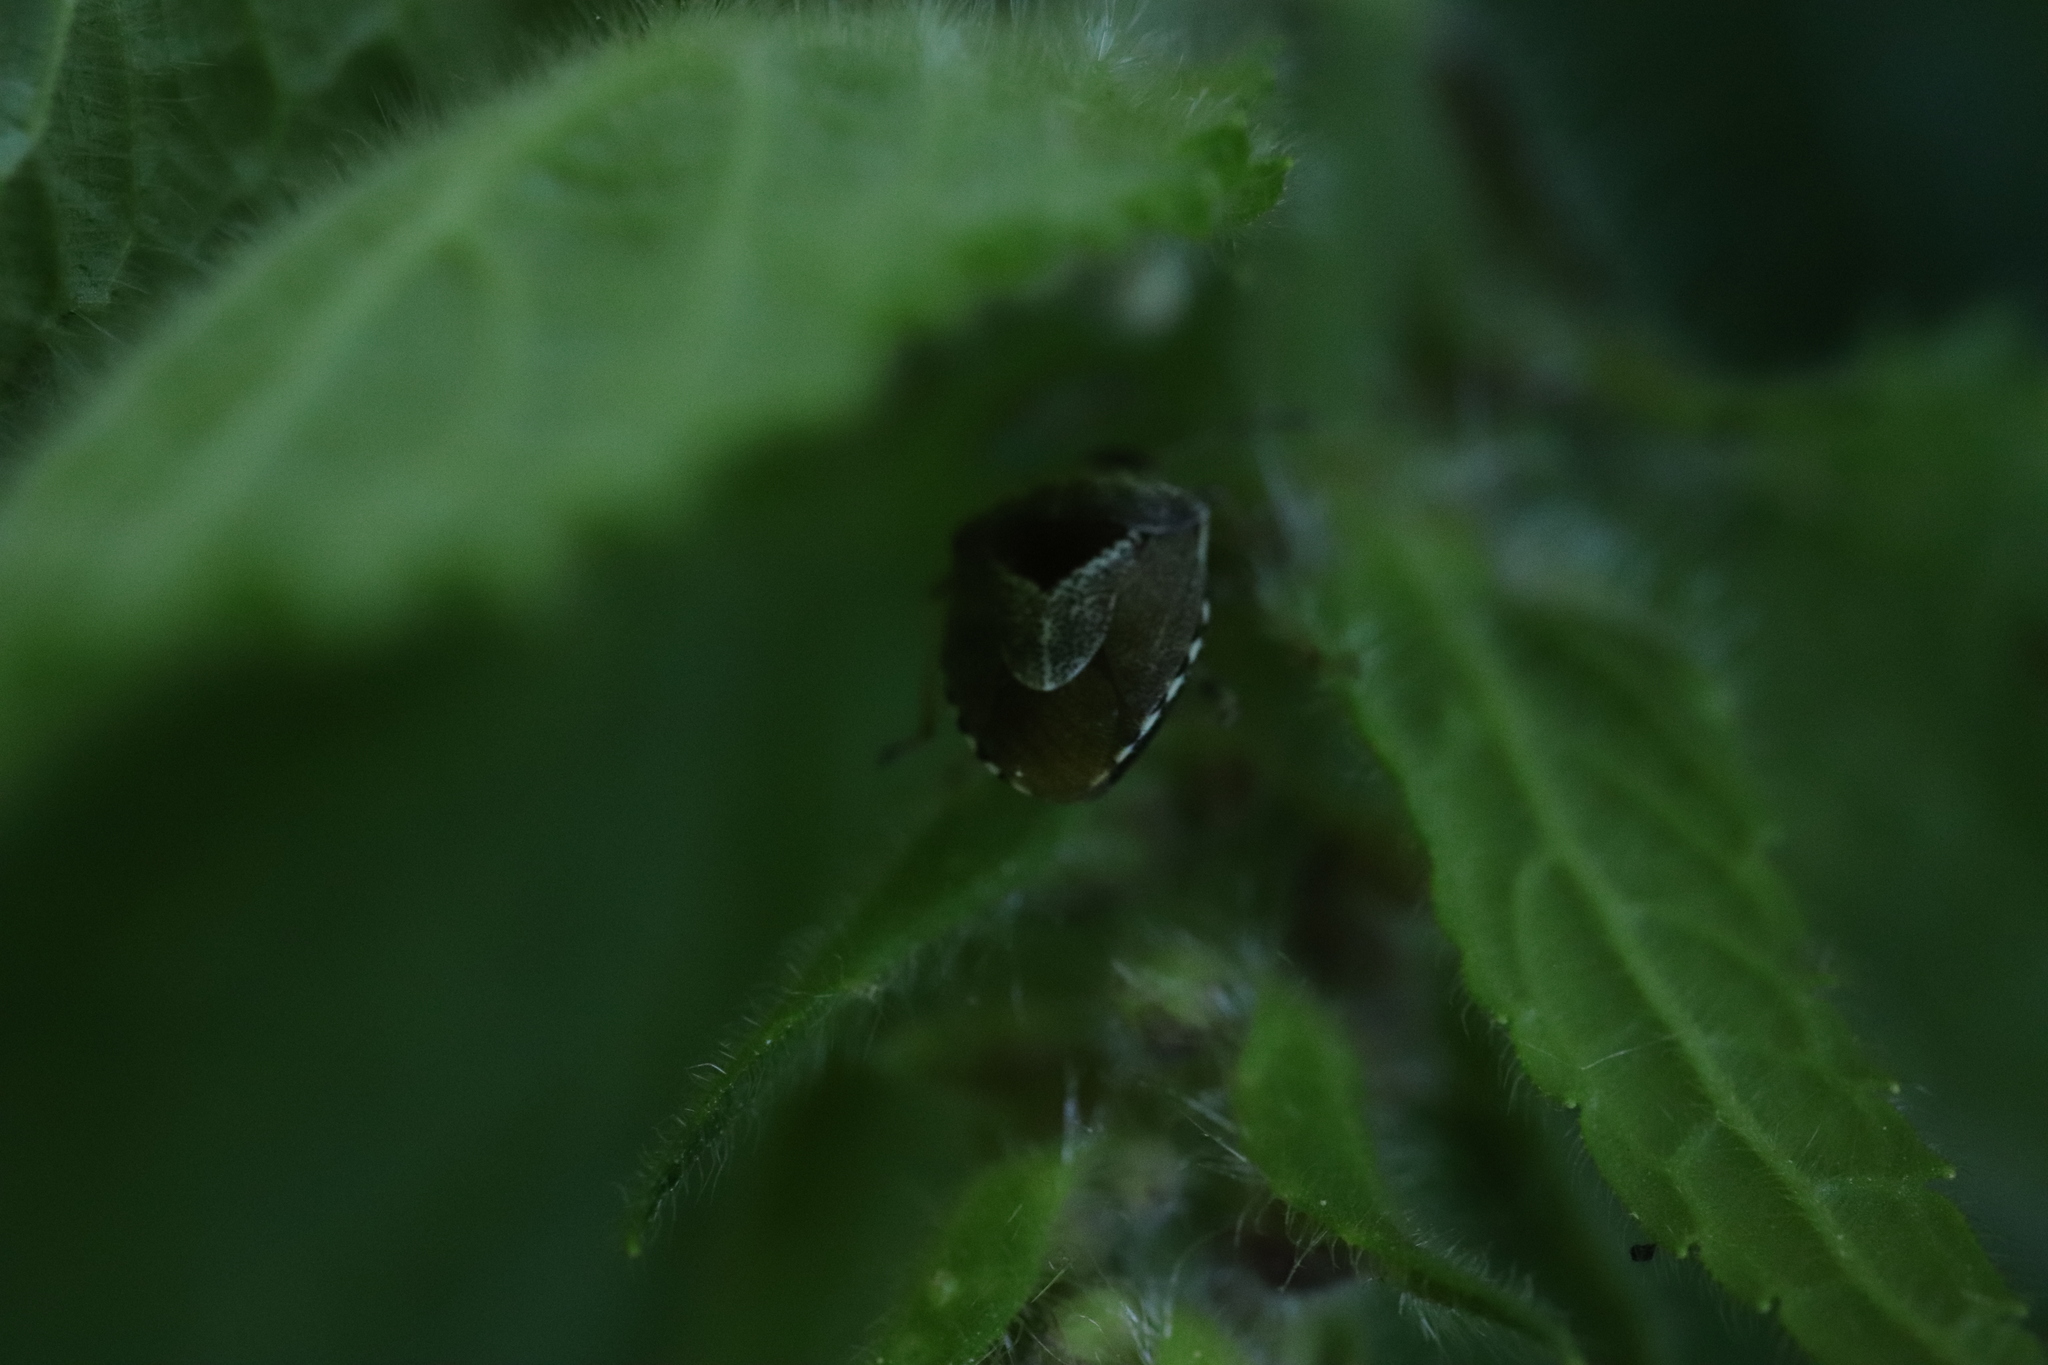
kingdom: Animalia
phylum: Arthropoda
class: Insecta
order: Hemiptera
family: Pentatomidae
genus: Eysarcoris
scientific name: Eysarcoris venustissimus
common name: Woundwort shieldbug
